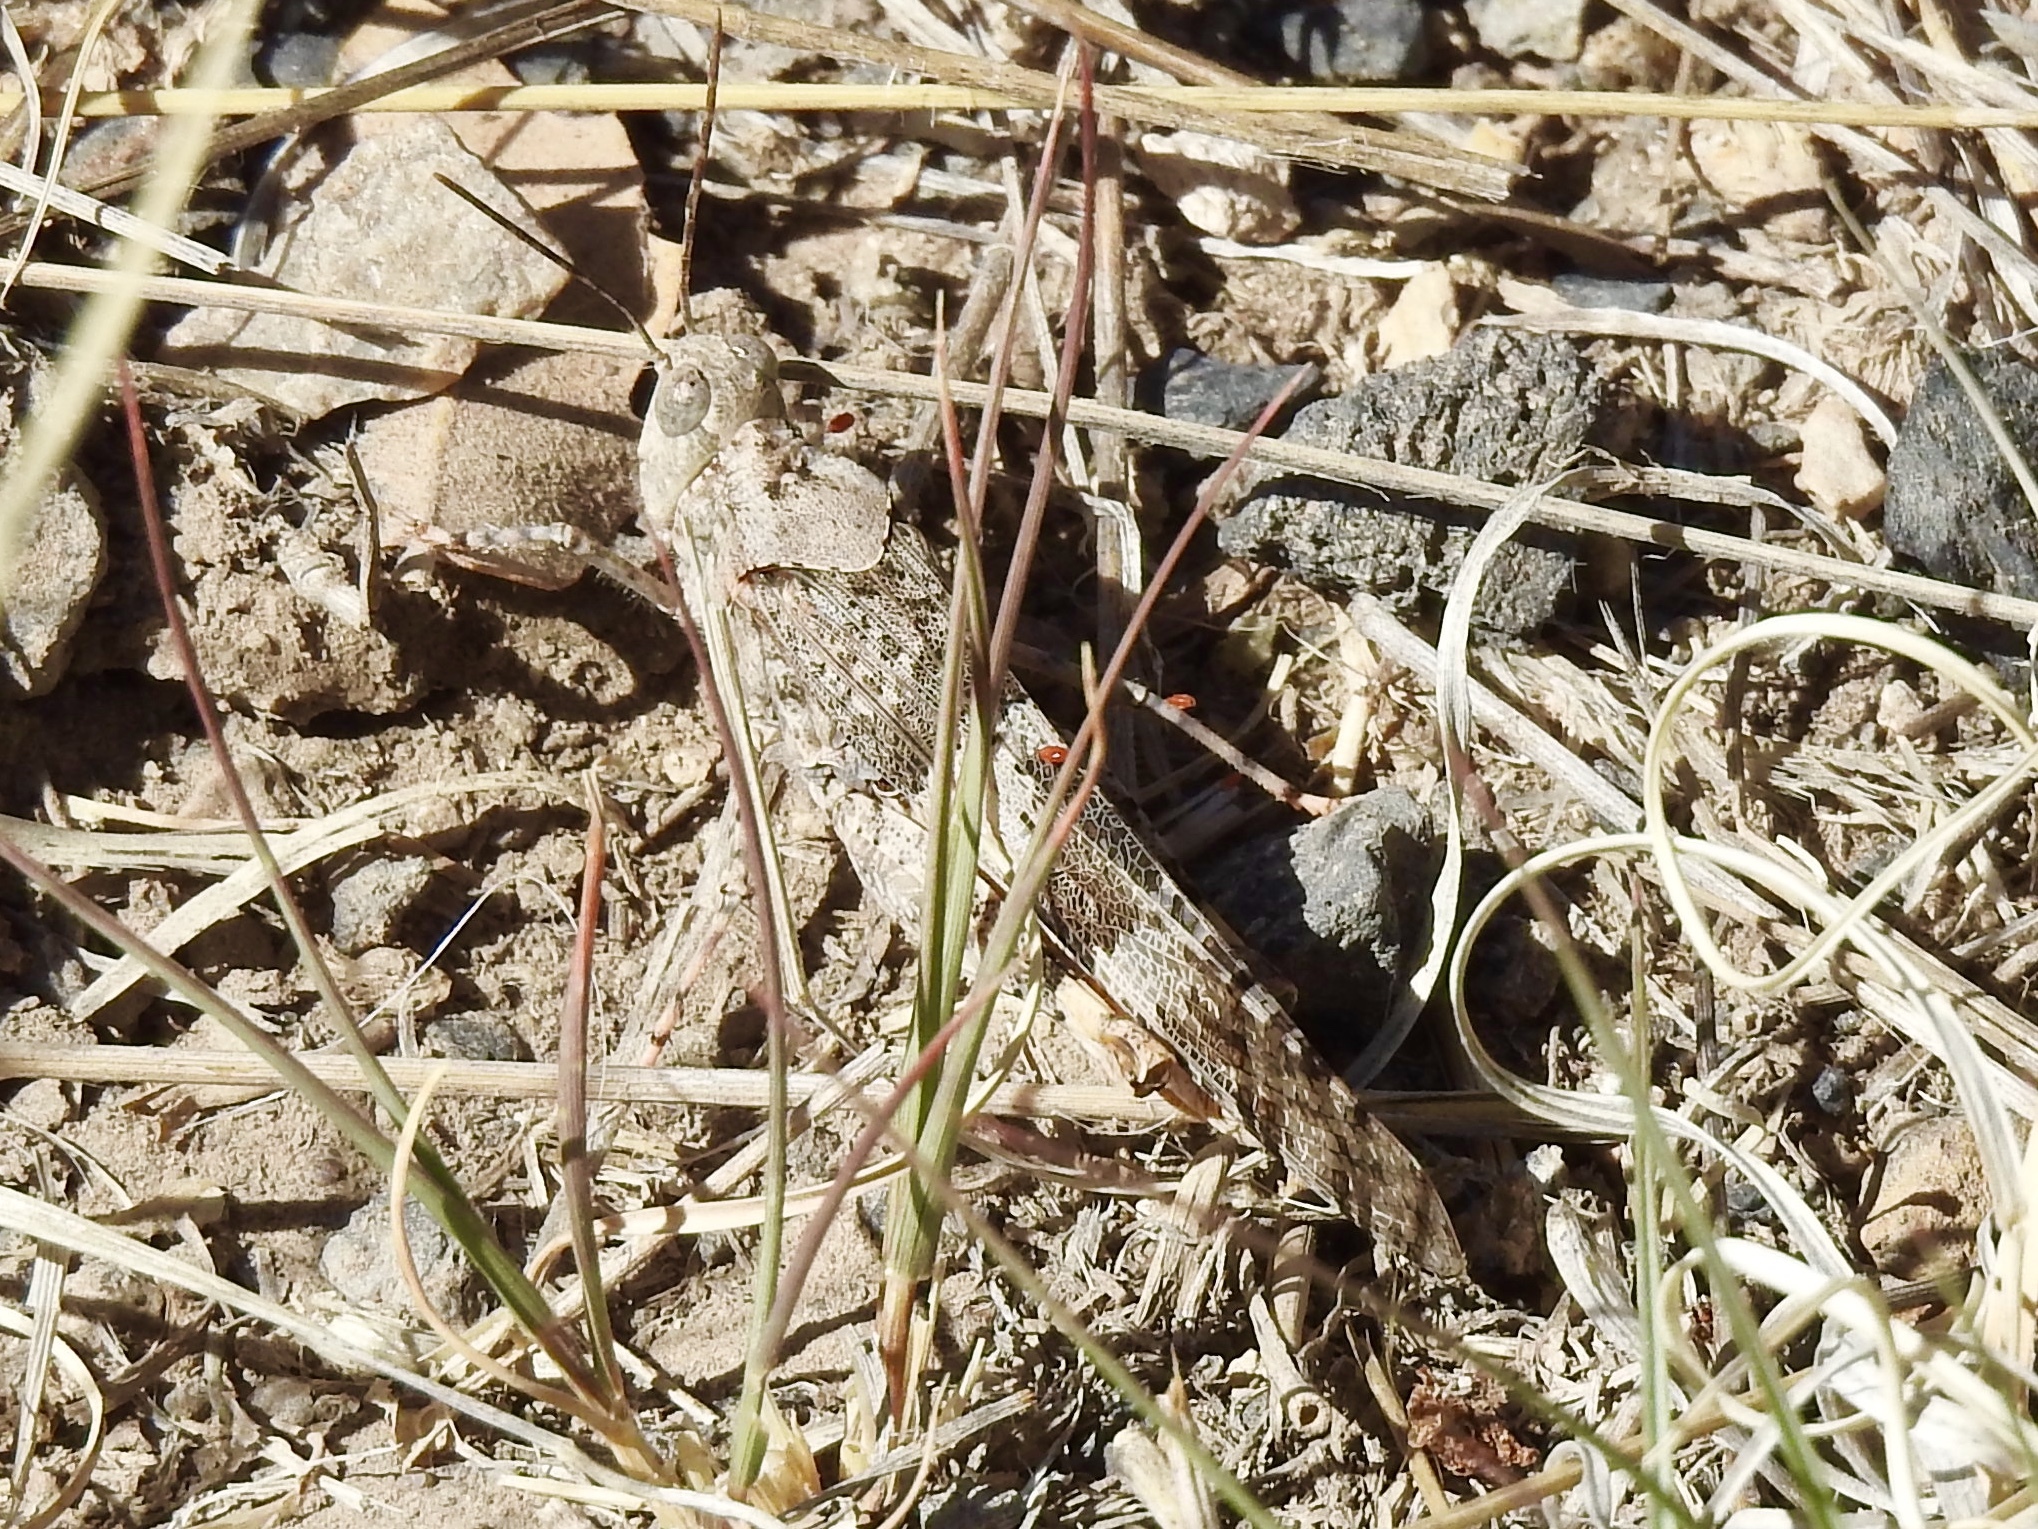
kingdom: Animalia
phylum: Arthropoda
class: Insecta
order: Orthoptera
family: Acrididae
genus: Trimerotropis
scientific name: Trimerotropis pallidipennis
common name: Pallid-winged grasshopper
